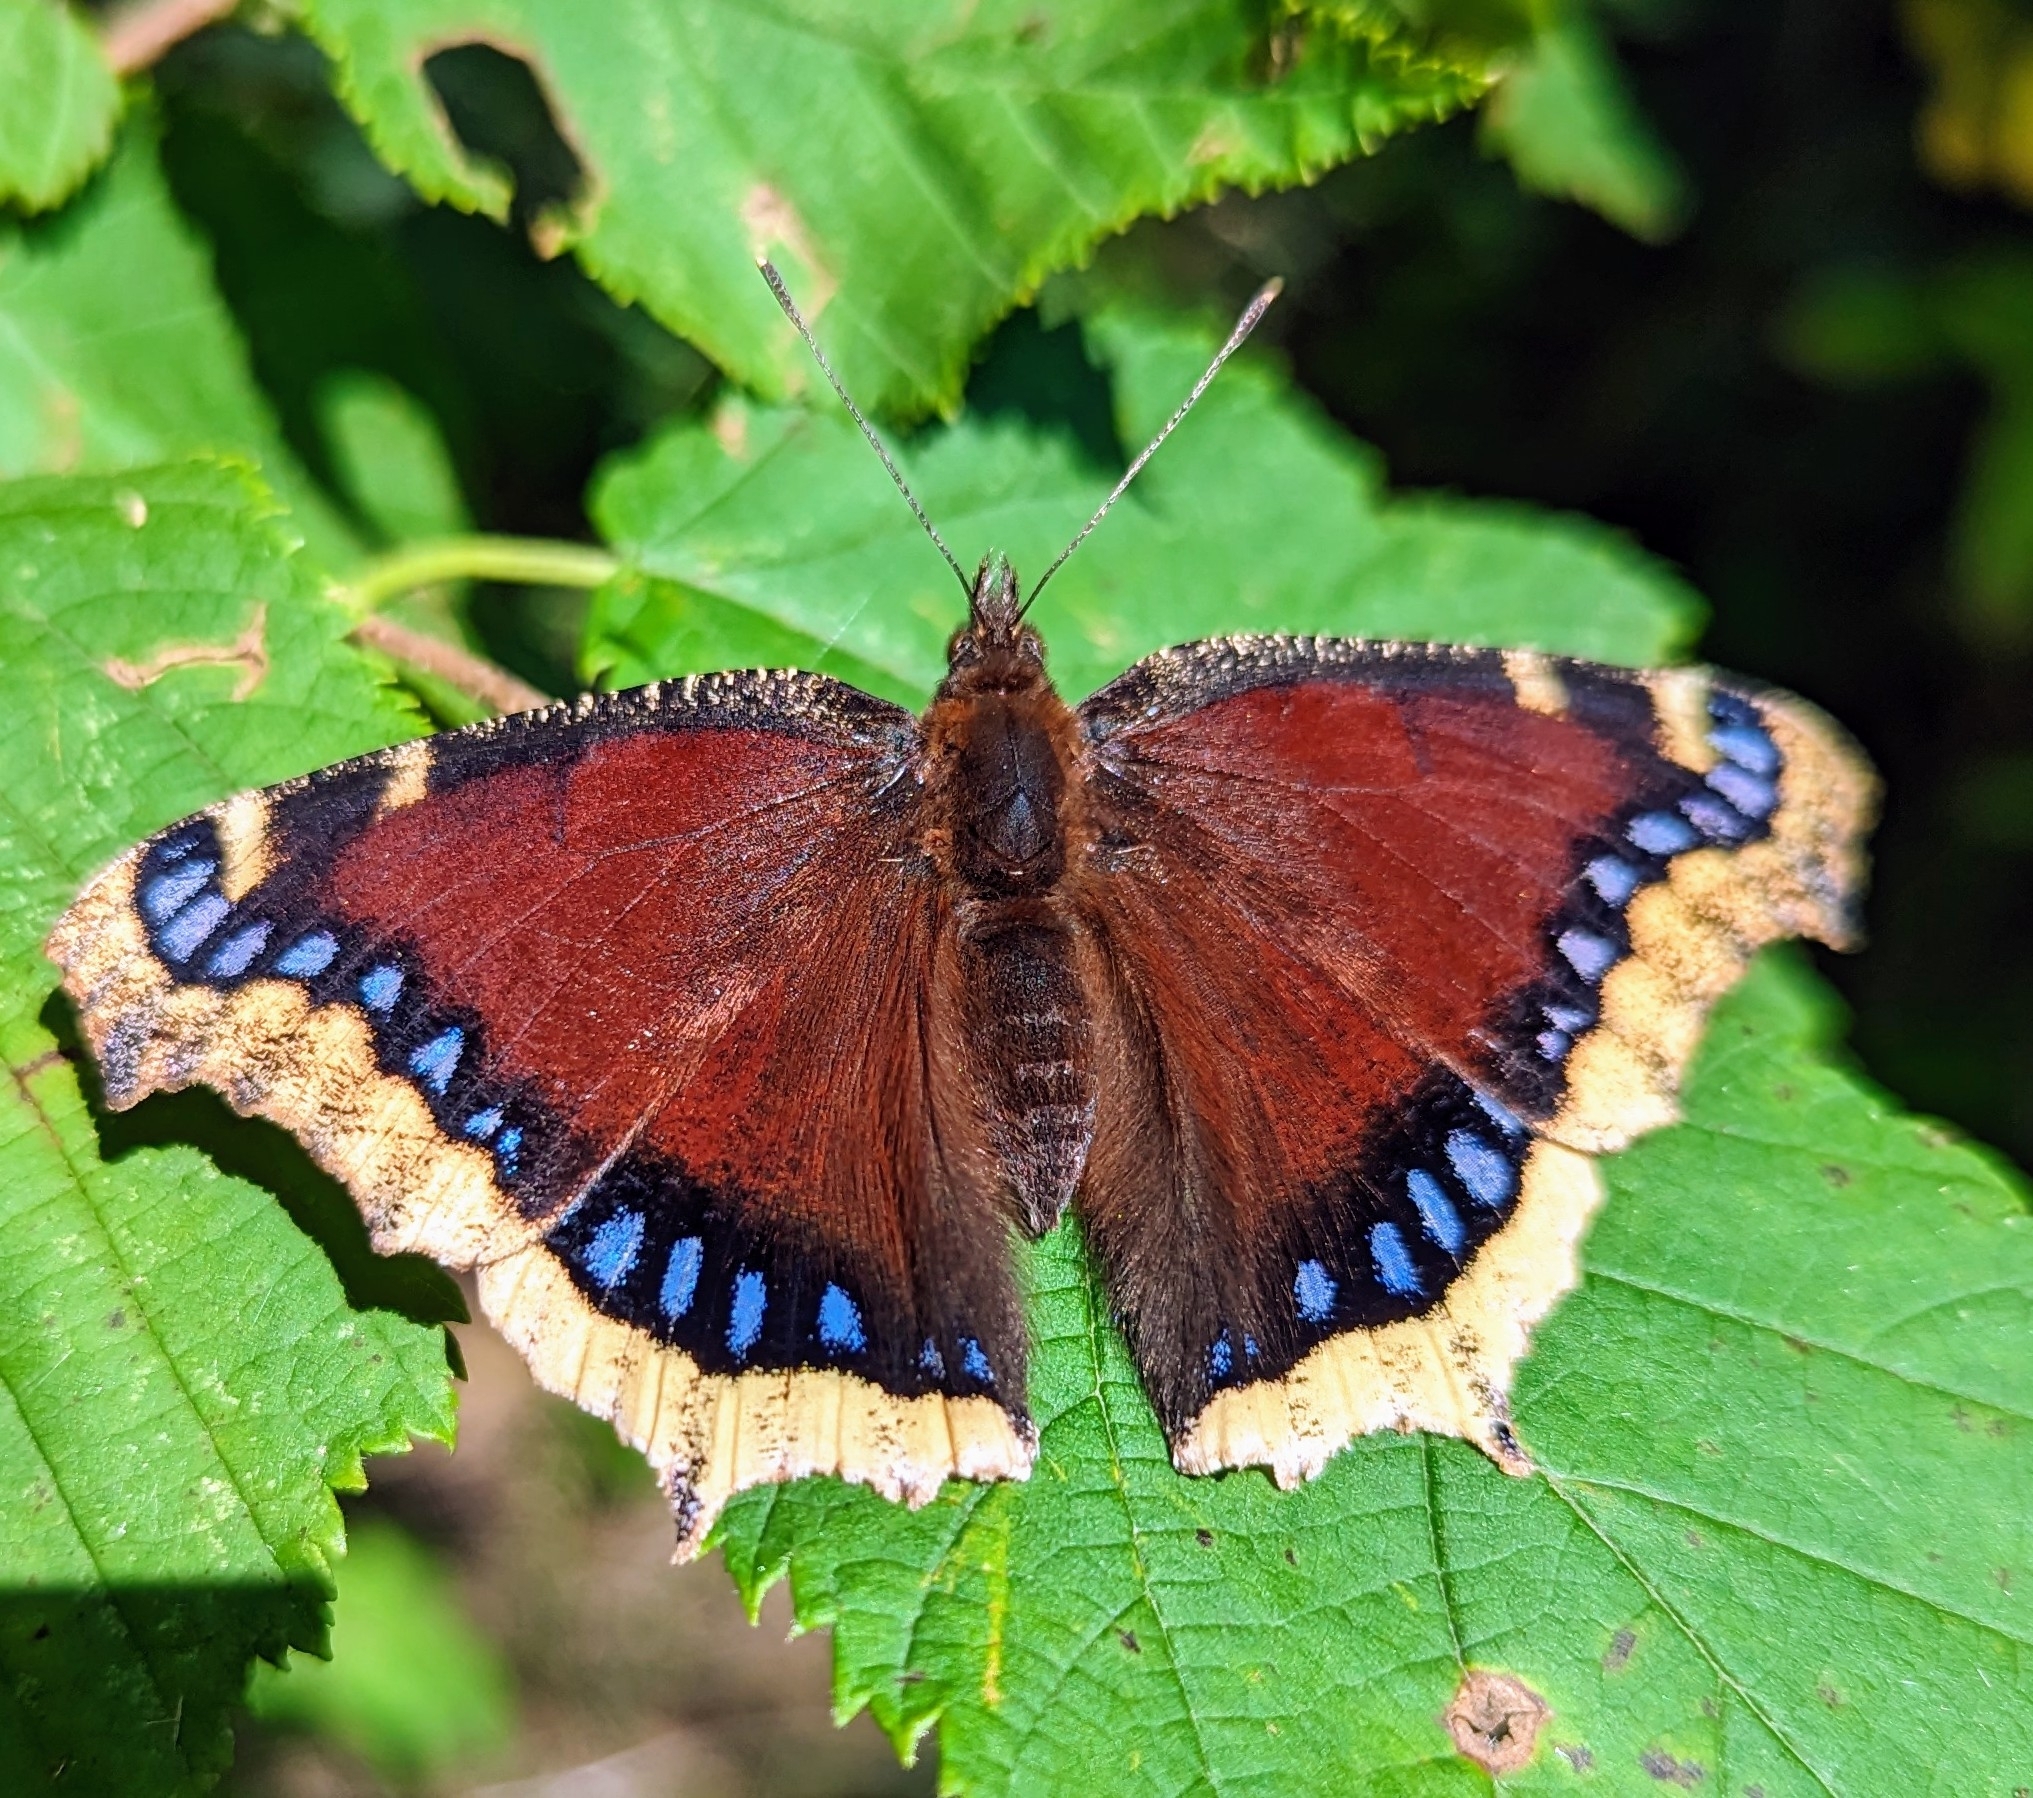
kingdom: Animalia
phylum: Arthropoda
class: Insecta
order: Lepidoptera
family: Nymphalidae
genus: Nymphalis
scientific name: Nymphalis antiopa
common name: Camberwell beauty
